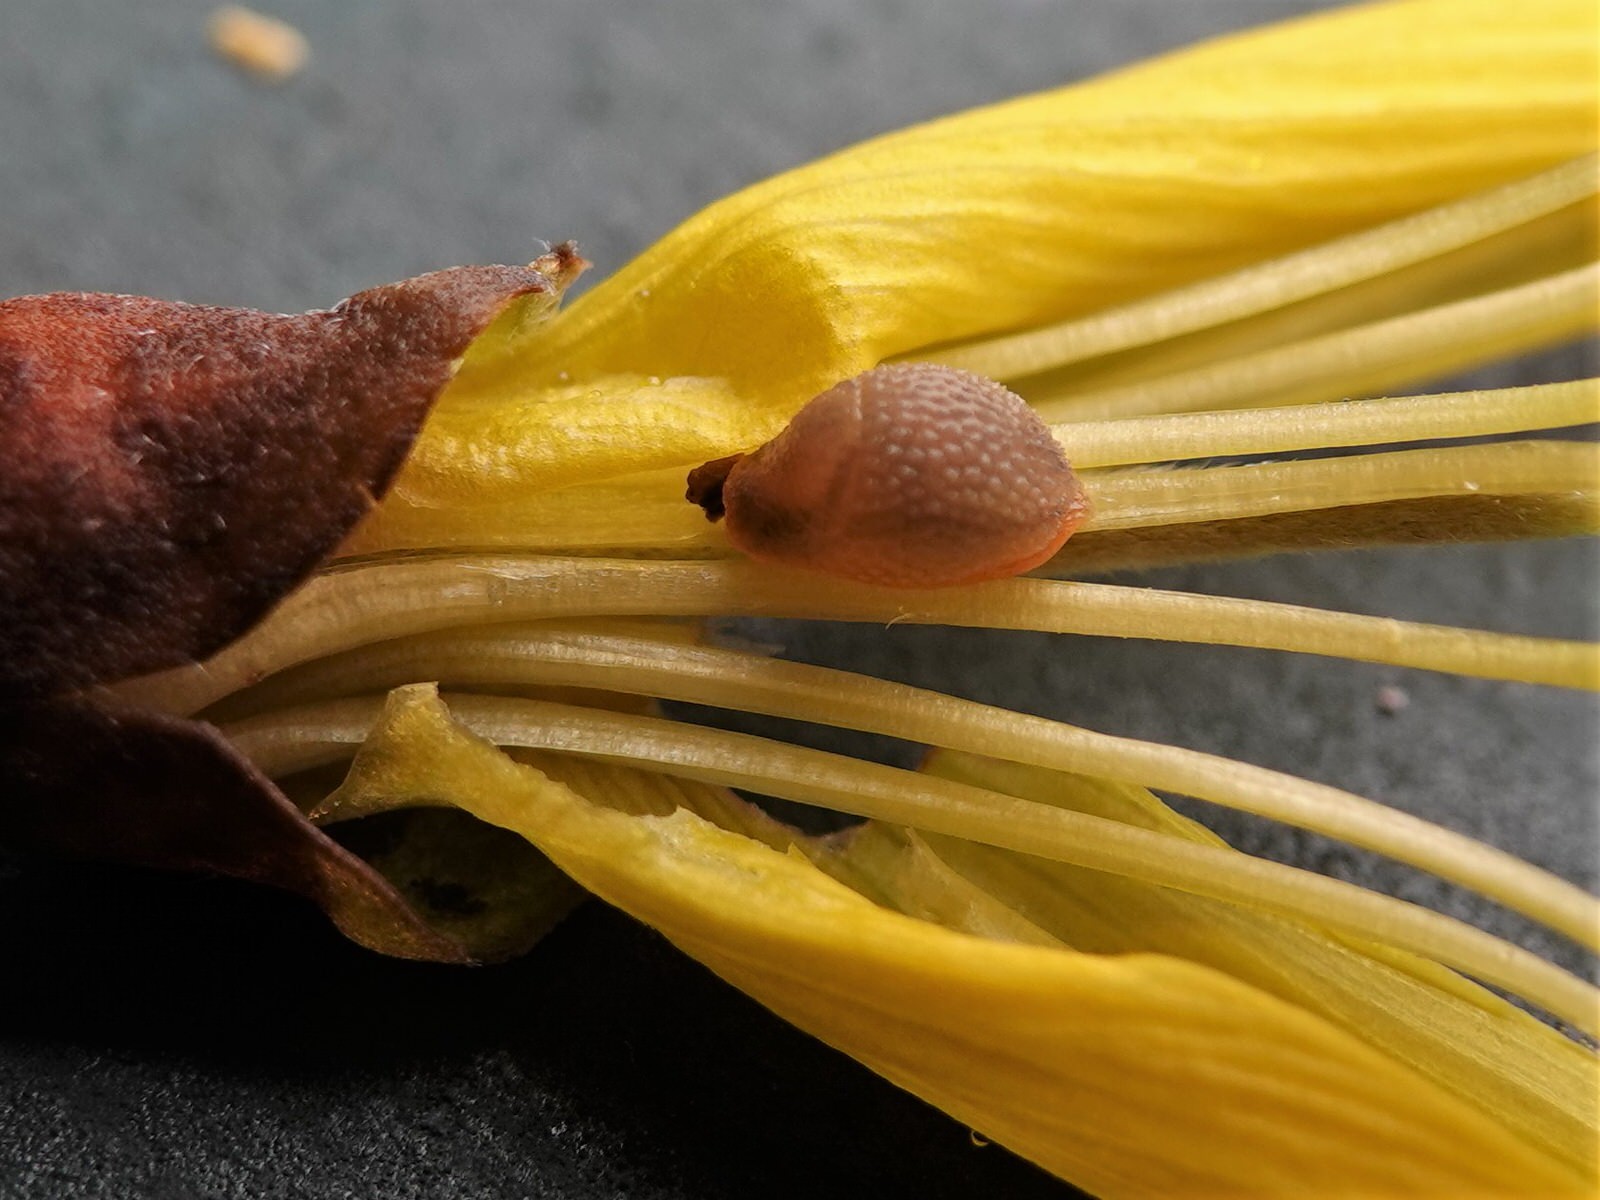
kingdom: Animalia
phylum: Mollusca
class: Gastropoda
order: Stylommatophora
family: Arionidae
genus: Arion
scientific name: Arion intermedius
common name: Hedgehog slug
